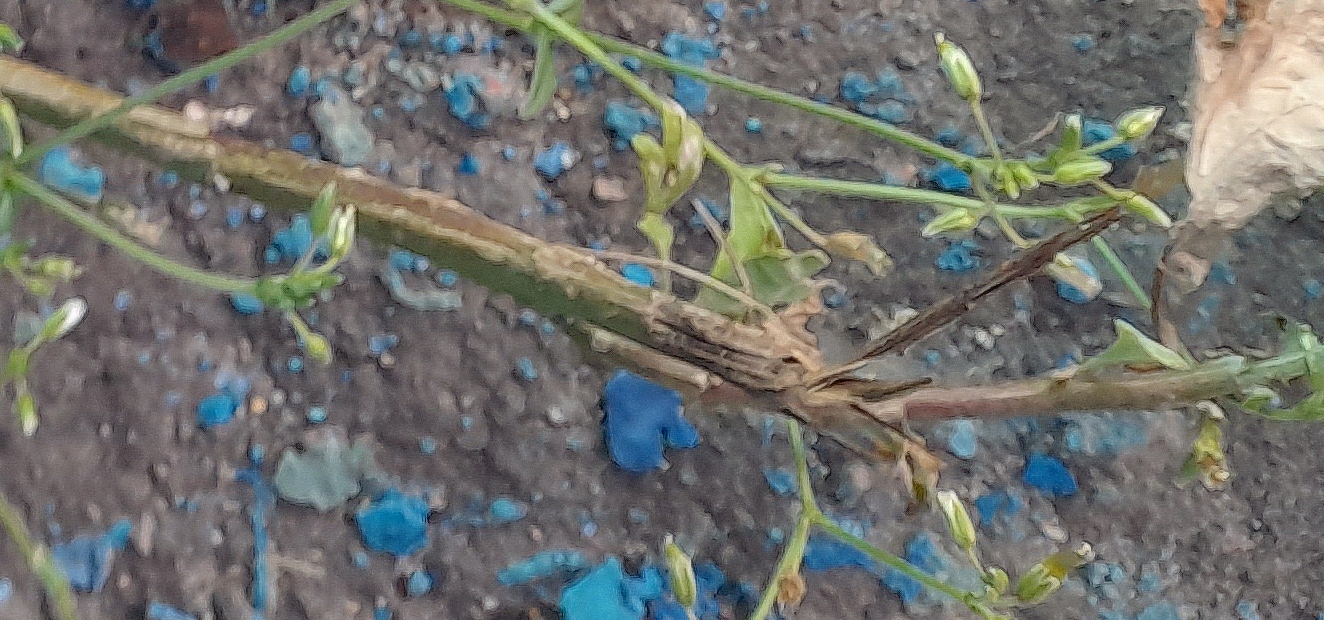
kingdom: Plantae
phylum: Tracheophyta
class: Magnoliopsida
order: Caryophyllales
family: Caryophyllaceae
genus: Cerastium
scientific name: Cerastium holosteoides
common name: Big chickweed
